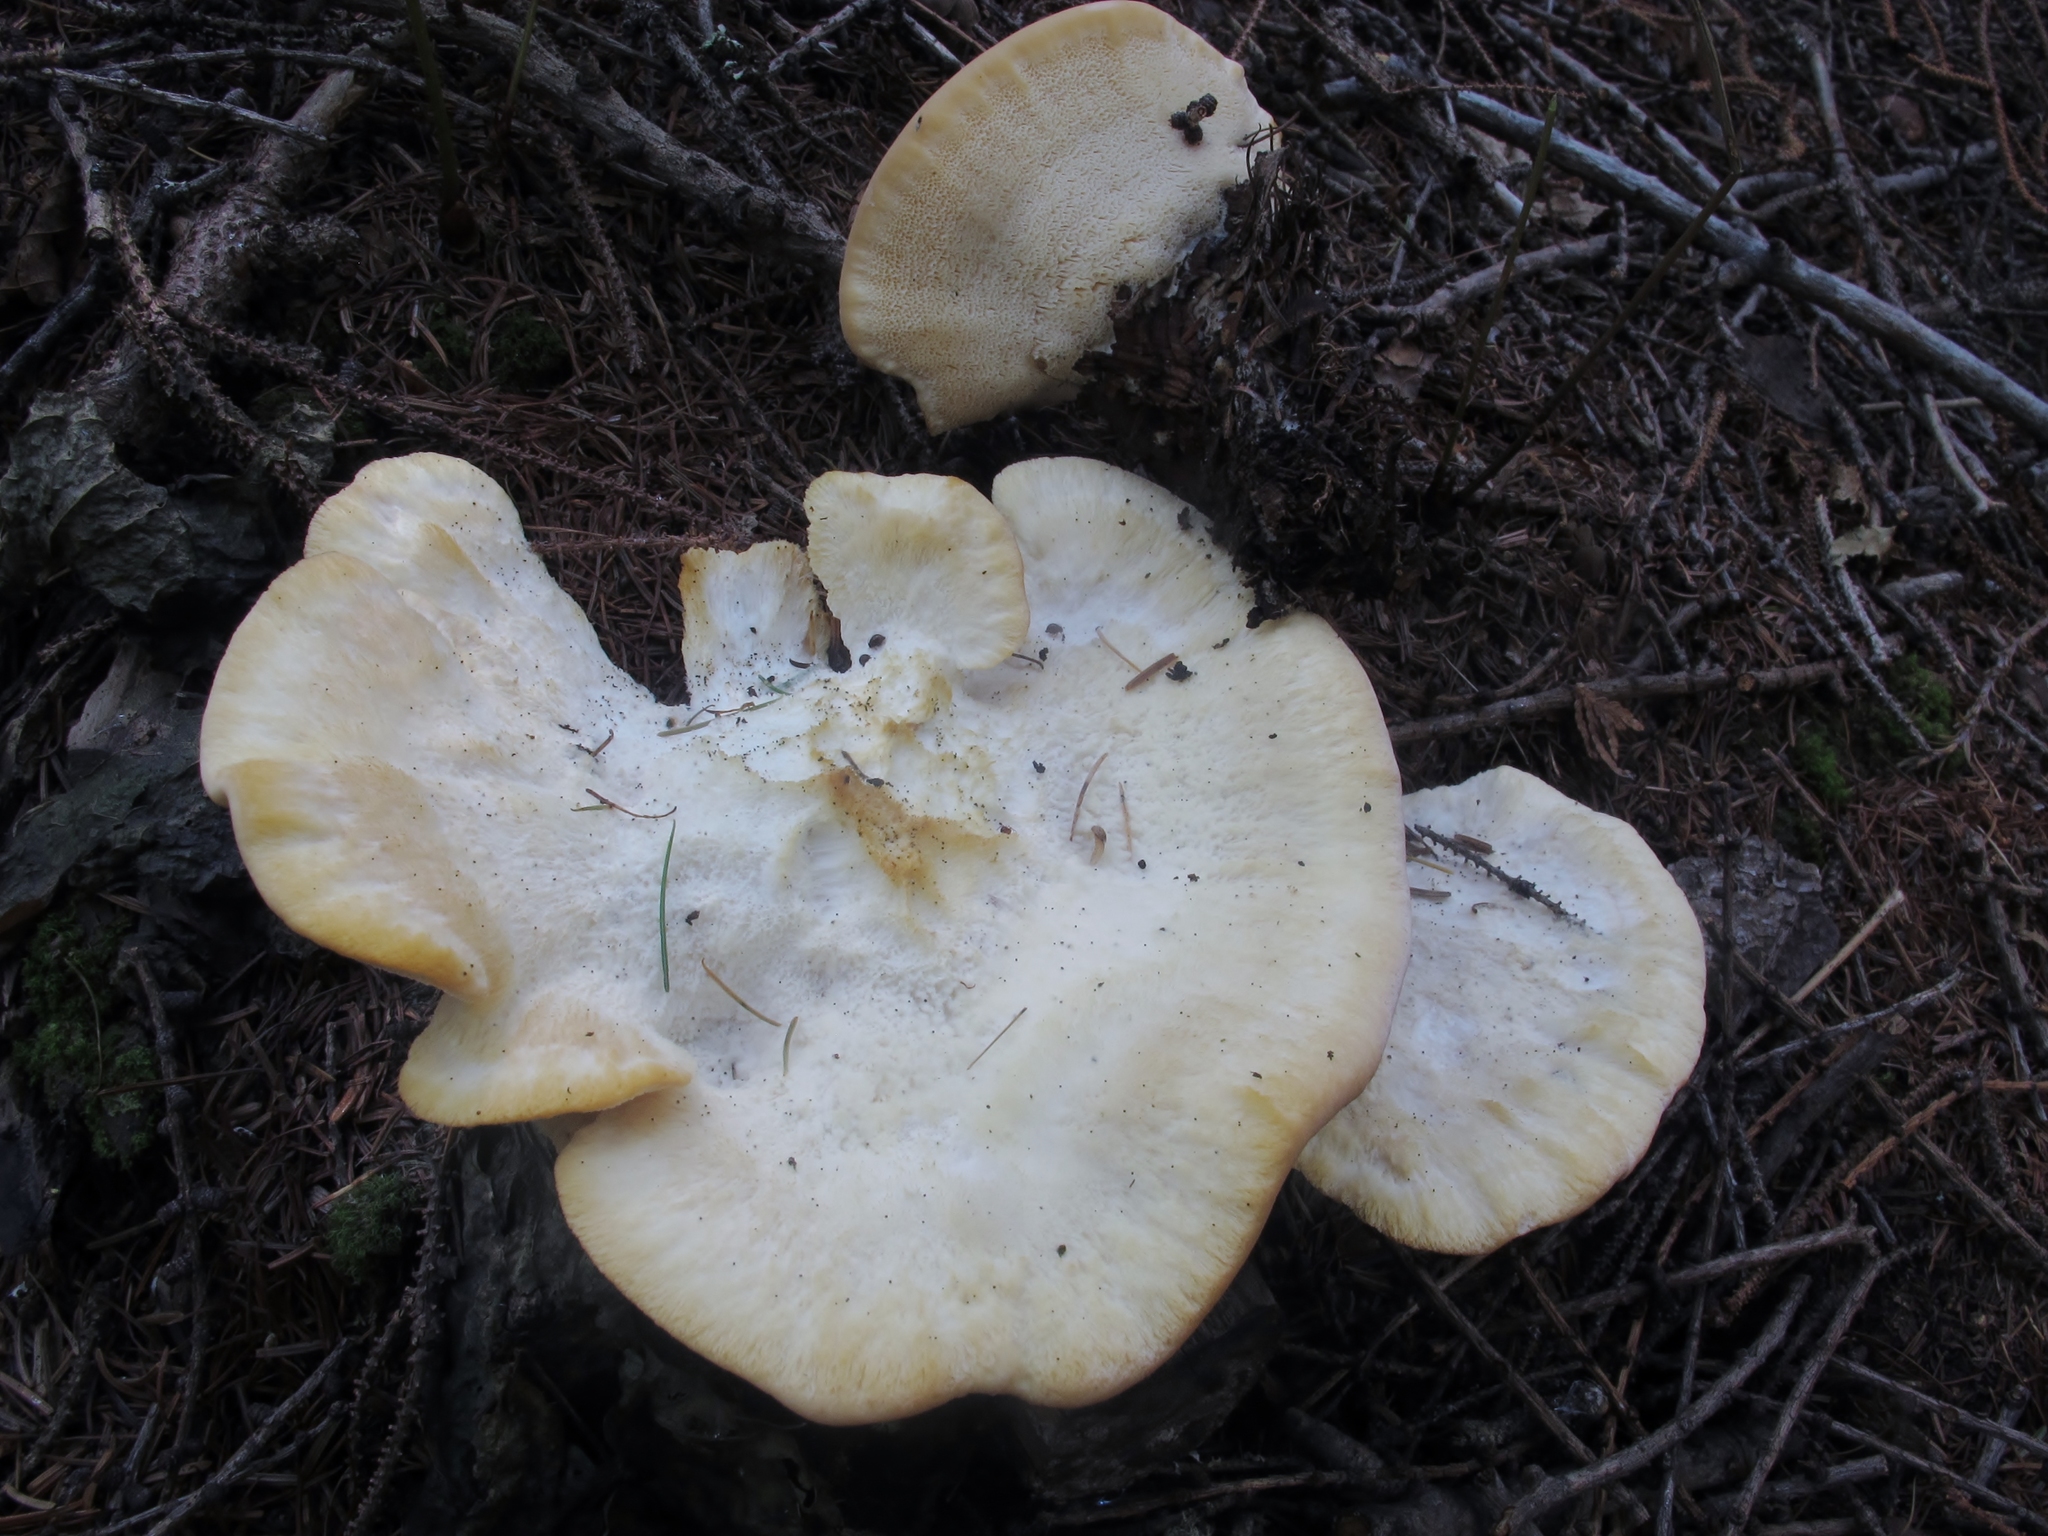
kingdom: Fungi
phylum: Basidiomycota
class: Agaricomycetes
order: Polyporales
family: Fomitopsidaceae
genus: Climacocystis
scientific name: Climacocystis borealis
